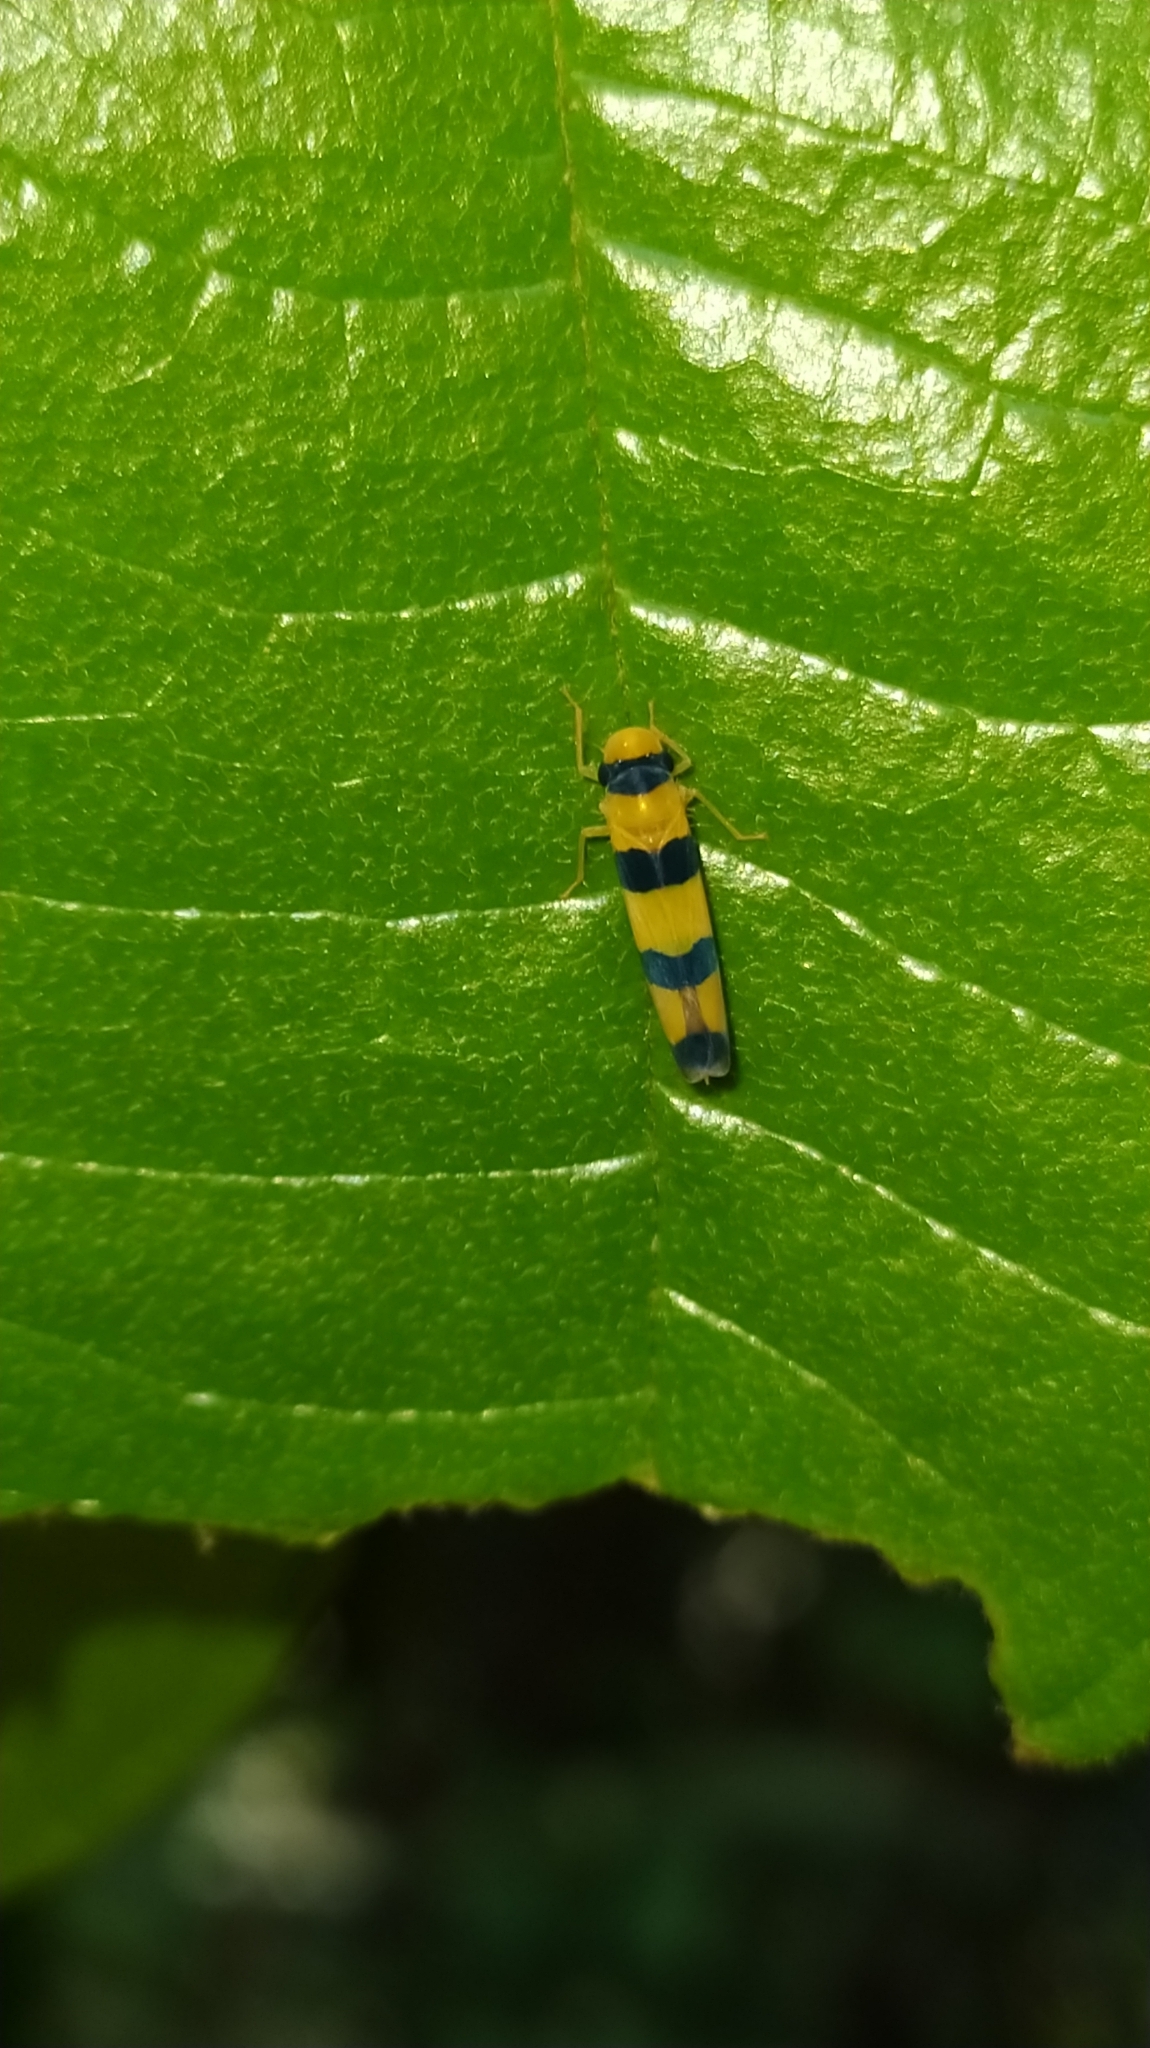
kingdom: Animalia
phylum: Arthropoda
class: Insecta
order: Hemiptera
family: Cicadellidae
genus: Cardioscarta
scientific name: Cardioscarta quadrifasciata
